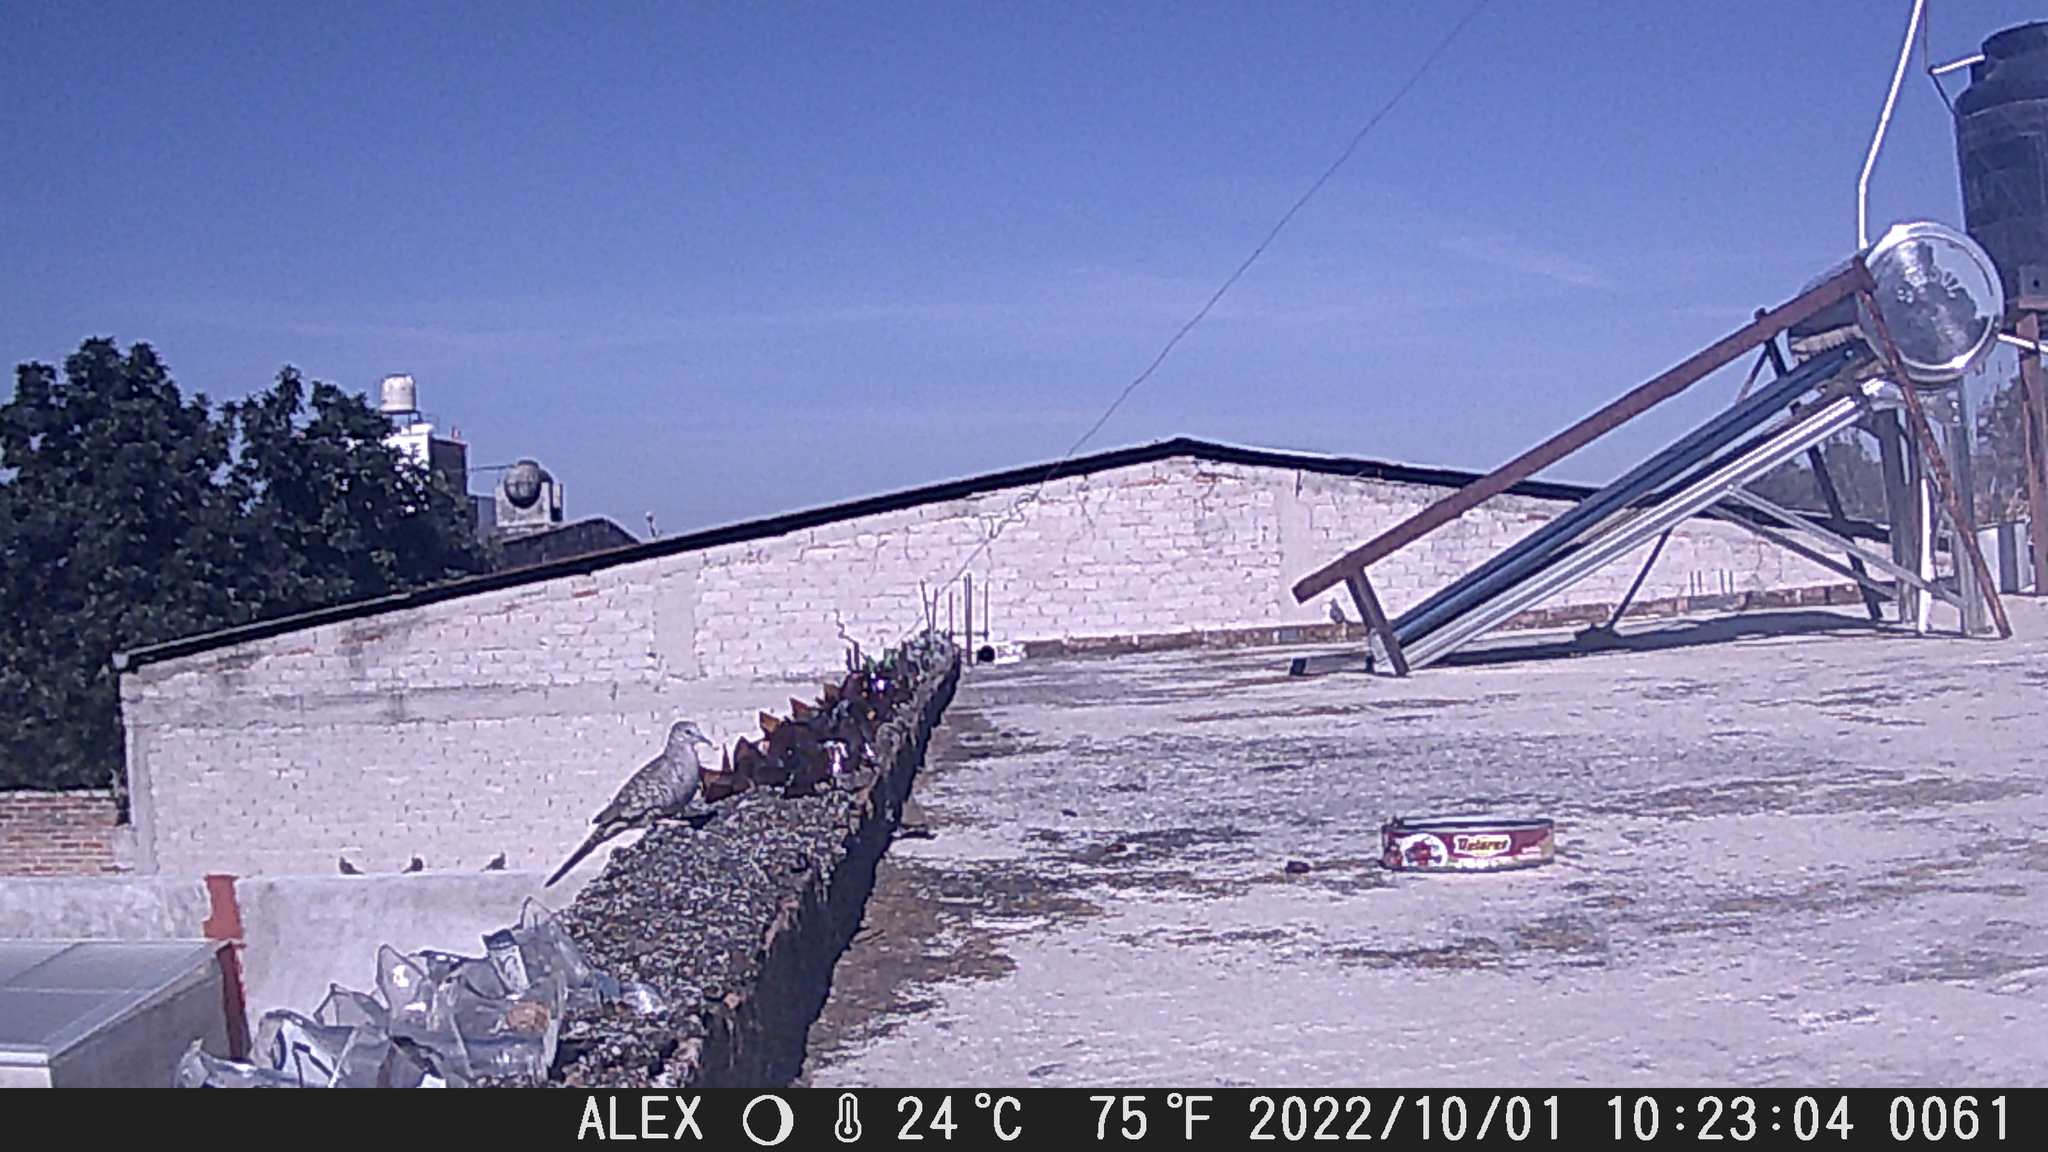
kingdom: Animalia
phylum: Chordata
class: Aves
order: Columbiformes
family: Columbidae
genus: Columbina
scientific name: Columbina inca
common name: Inca dove
